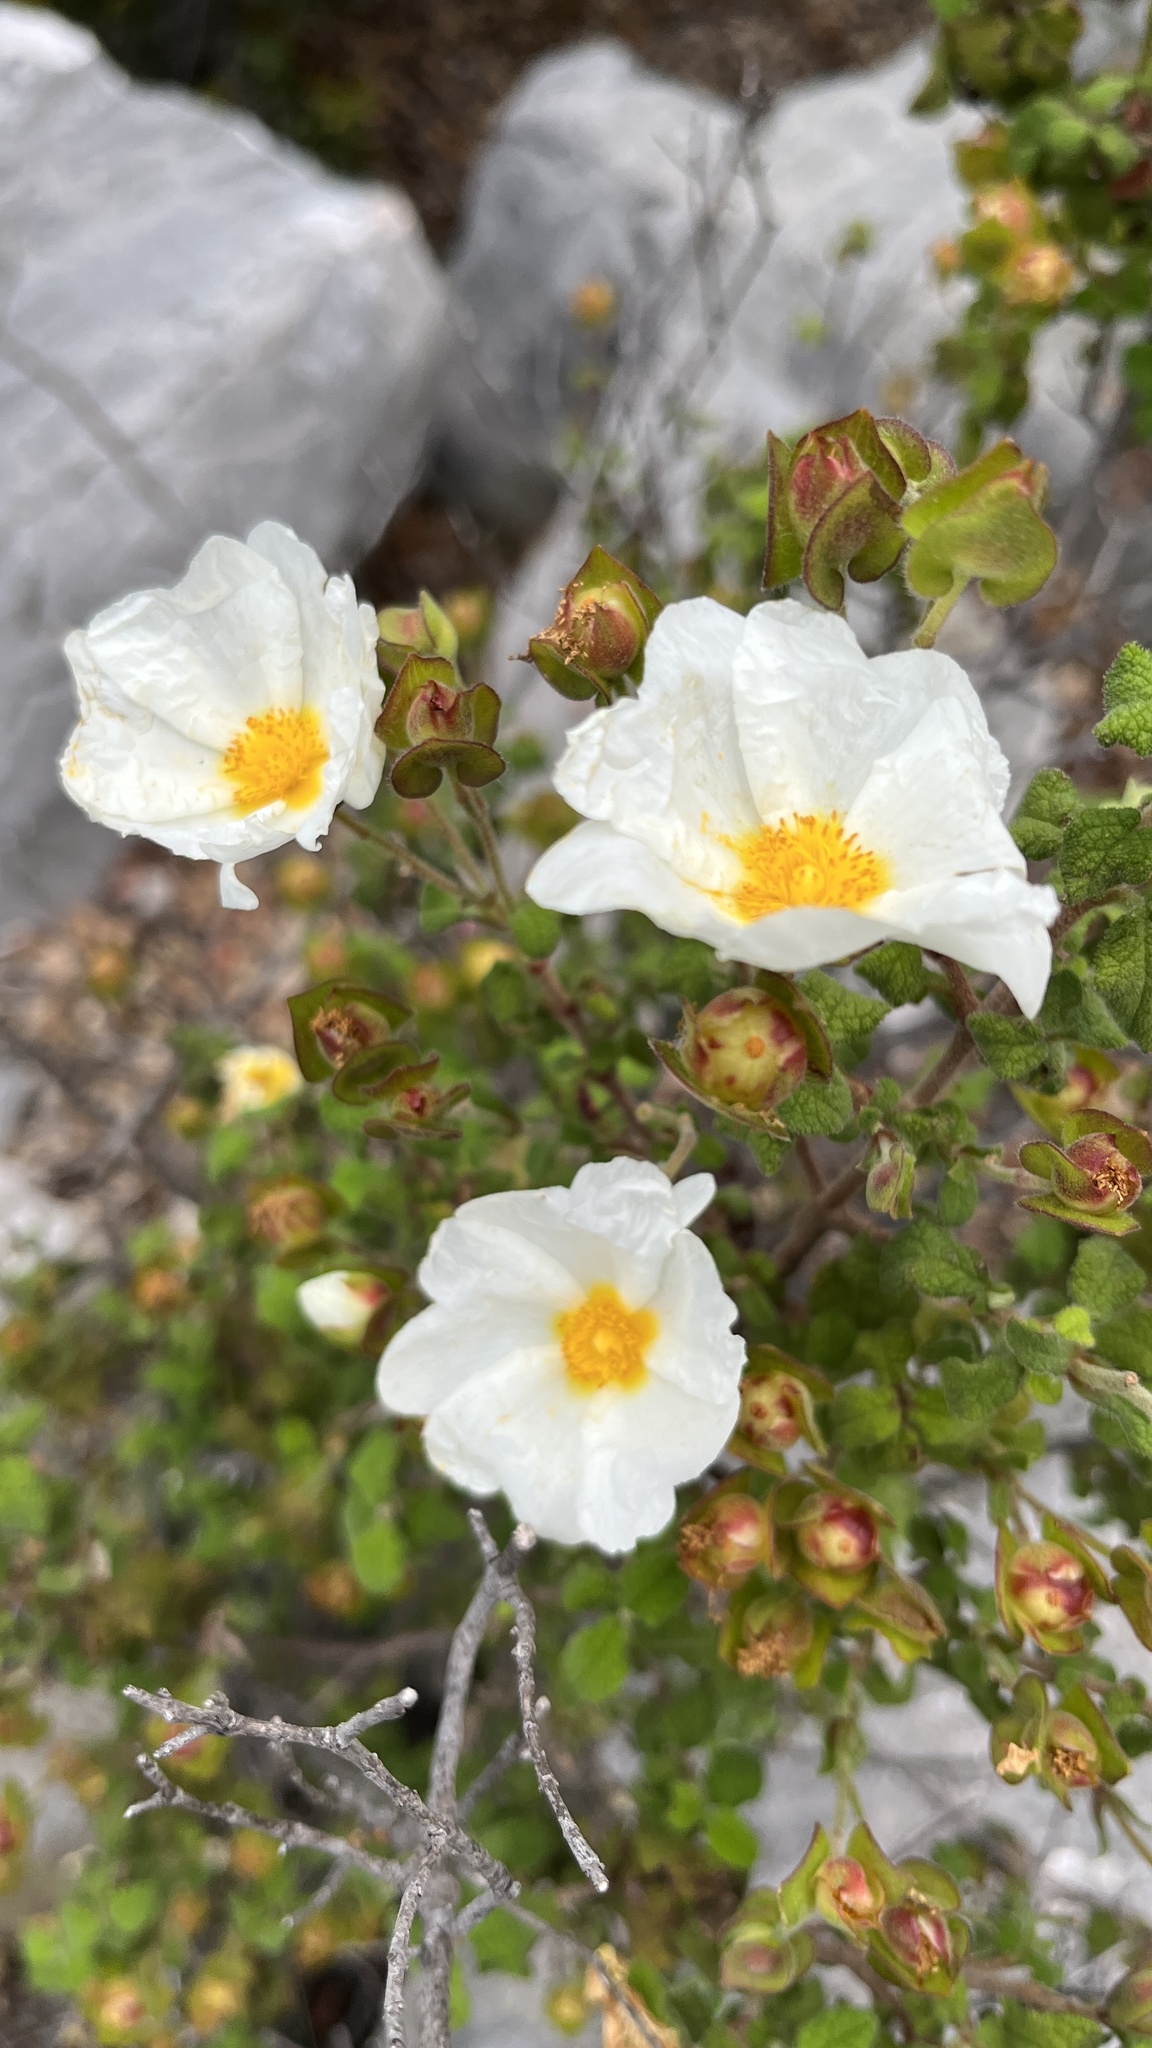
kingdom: Plantae
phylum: Tracheophyta
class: Magnoliopsida
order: Malvales
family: Cistaceae
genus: Cistus
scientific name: Cistus salviifolius
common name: Salvia cistus
